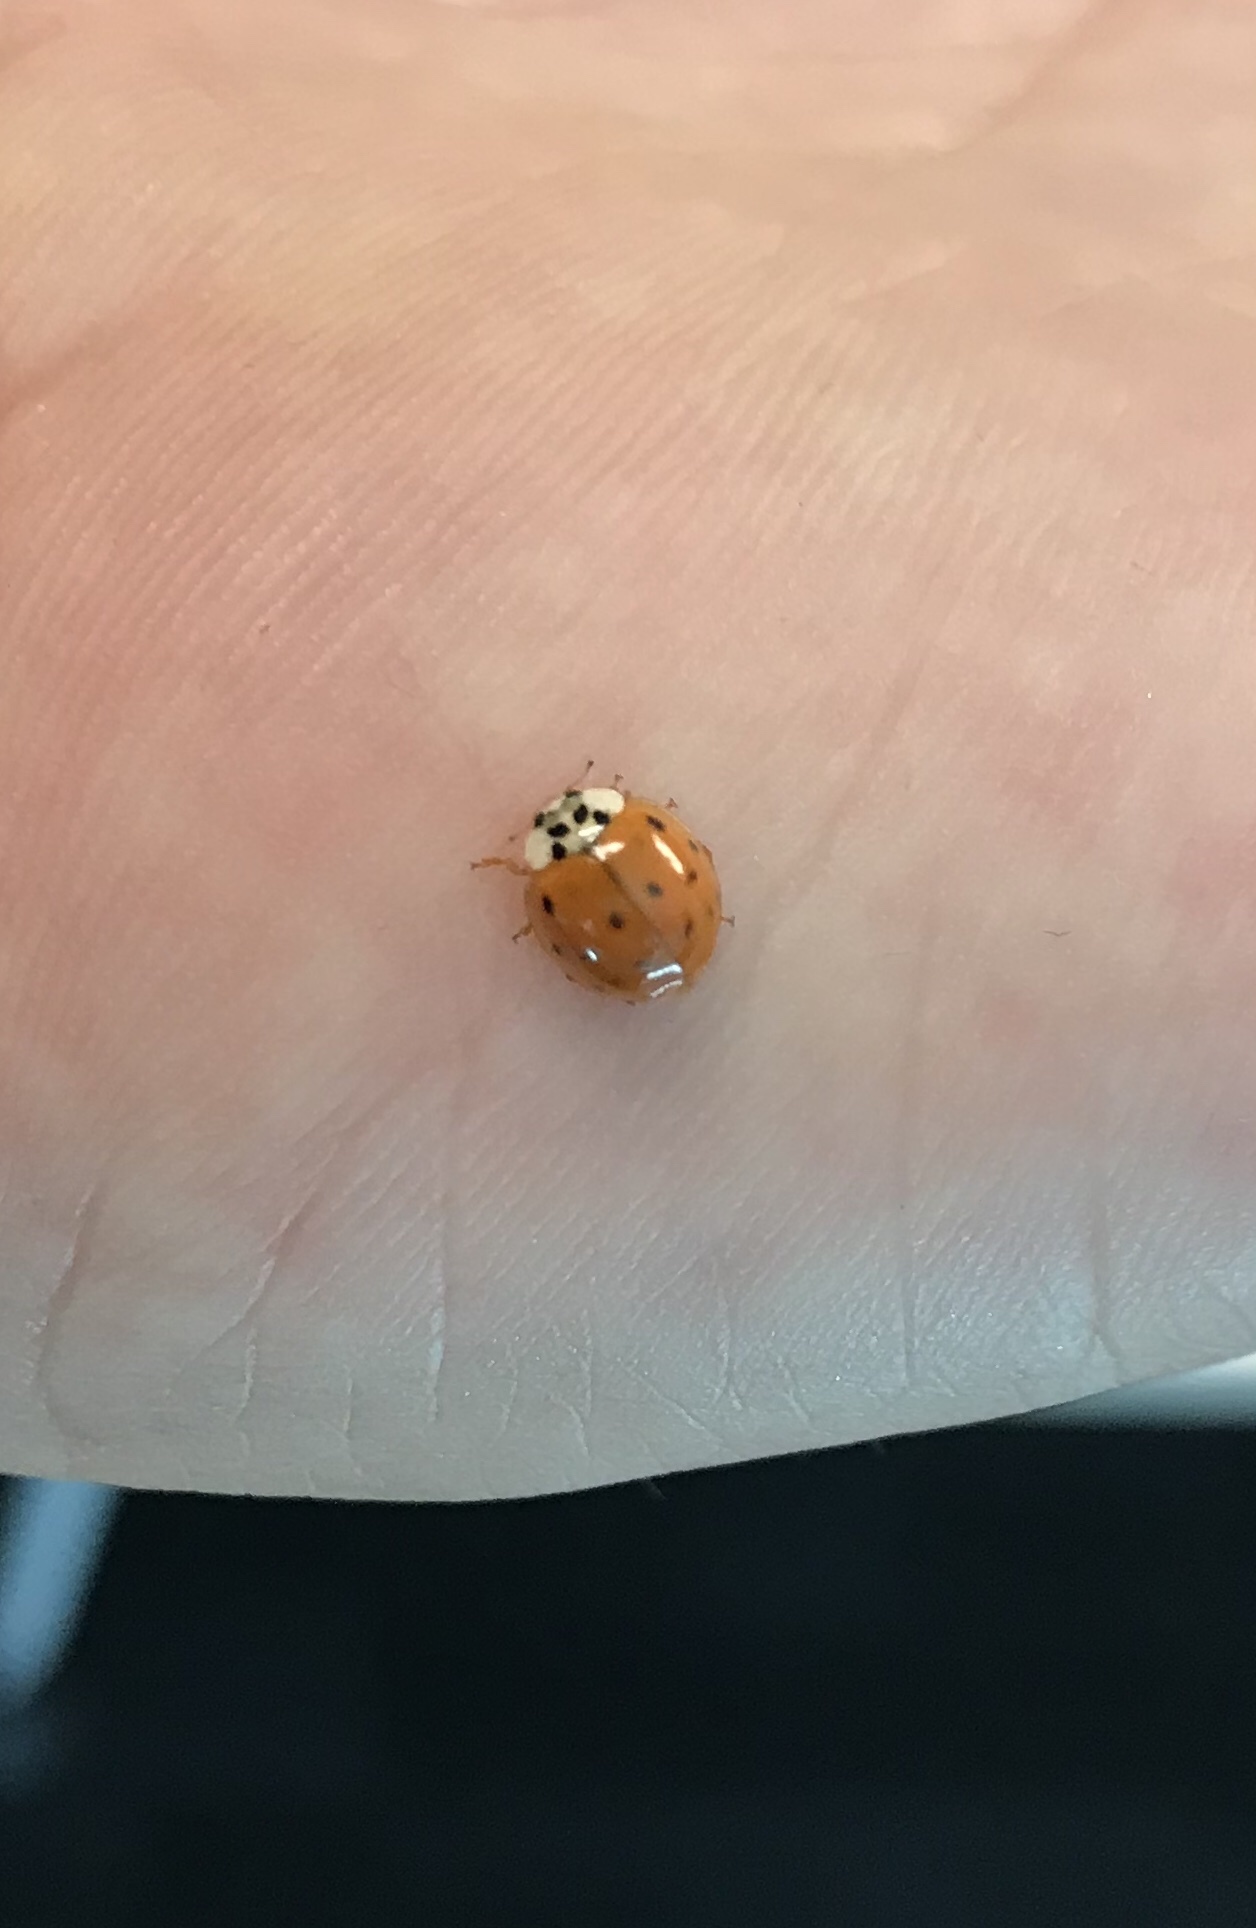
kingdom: Animalia
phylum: Arthropoda
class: Insecta
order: Coleoptera
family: Coccinellidae
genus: Harmonia
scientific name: Harmonia axyridis
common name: Harlequin ladybird
